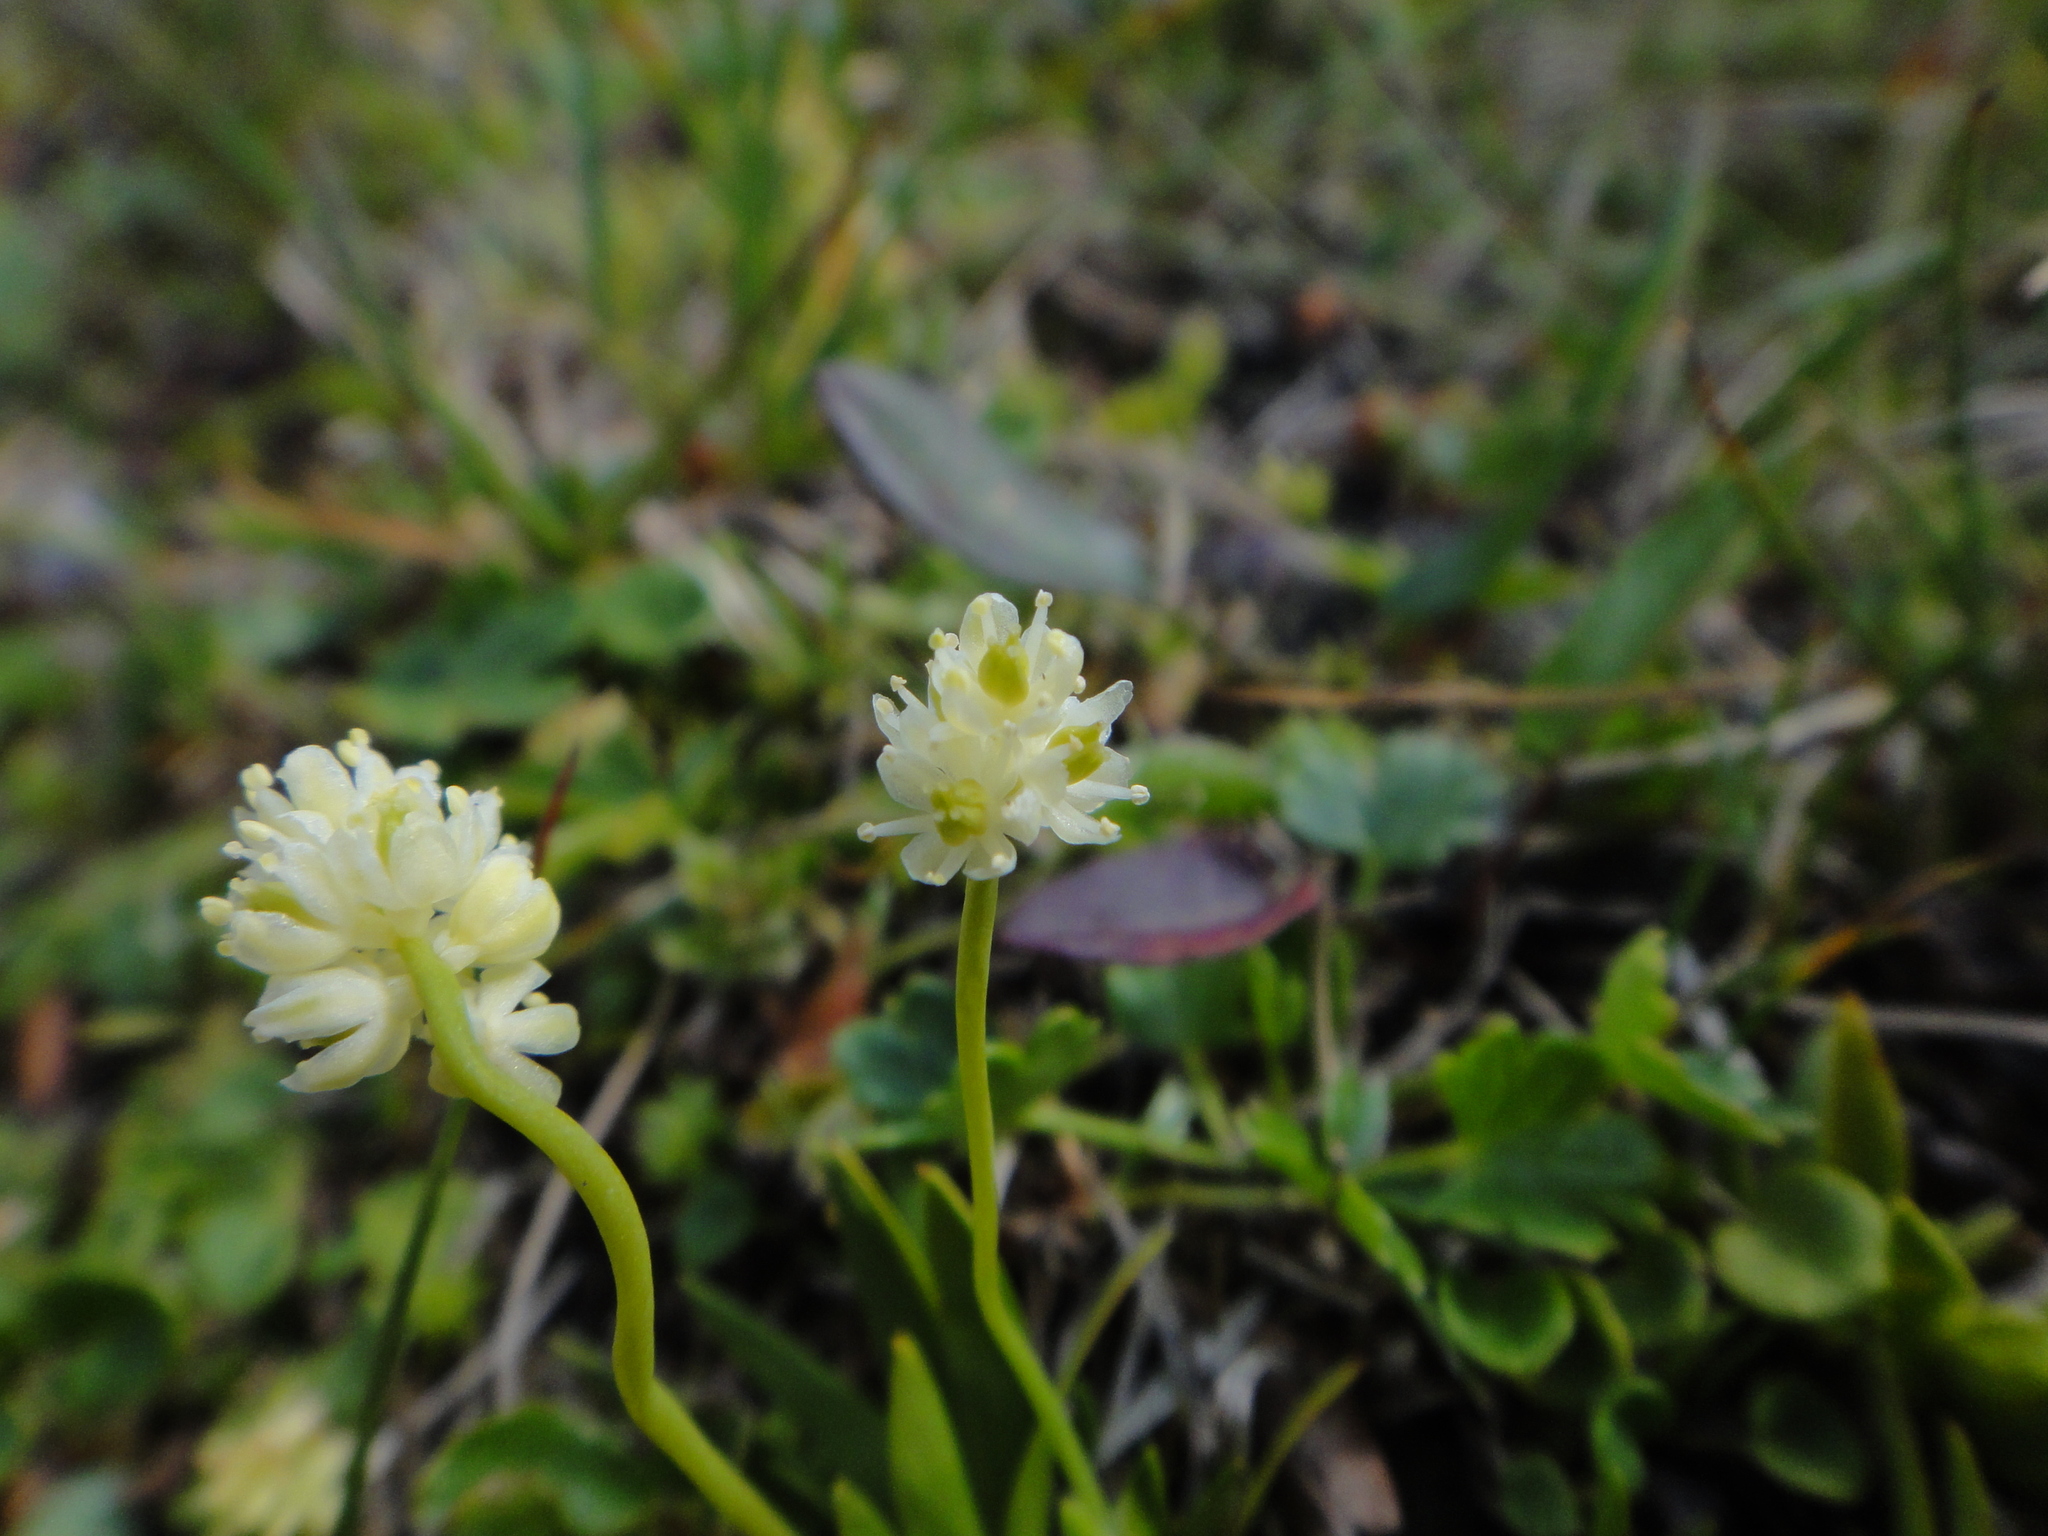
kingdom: Plantae
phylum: Tracheophyta
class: Liliopsida
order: Alismatales
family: Tofieldiaceae
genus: Tofieldia
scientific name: Tofieldia pusilla
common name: Scottish false asphodel
